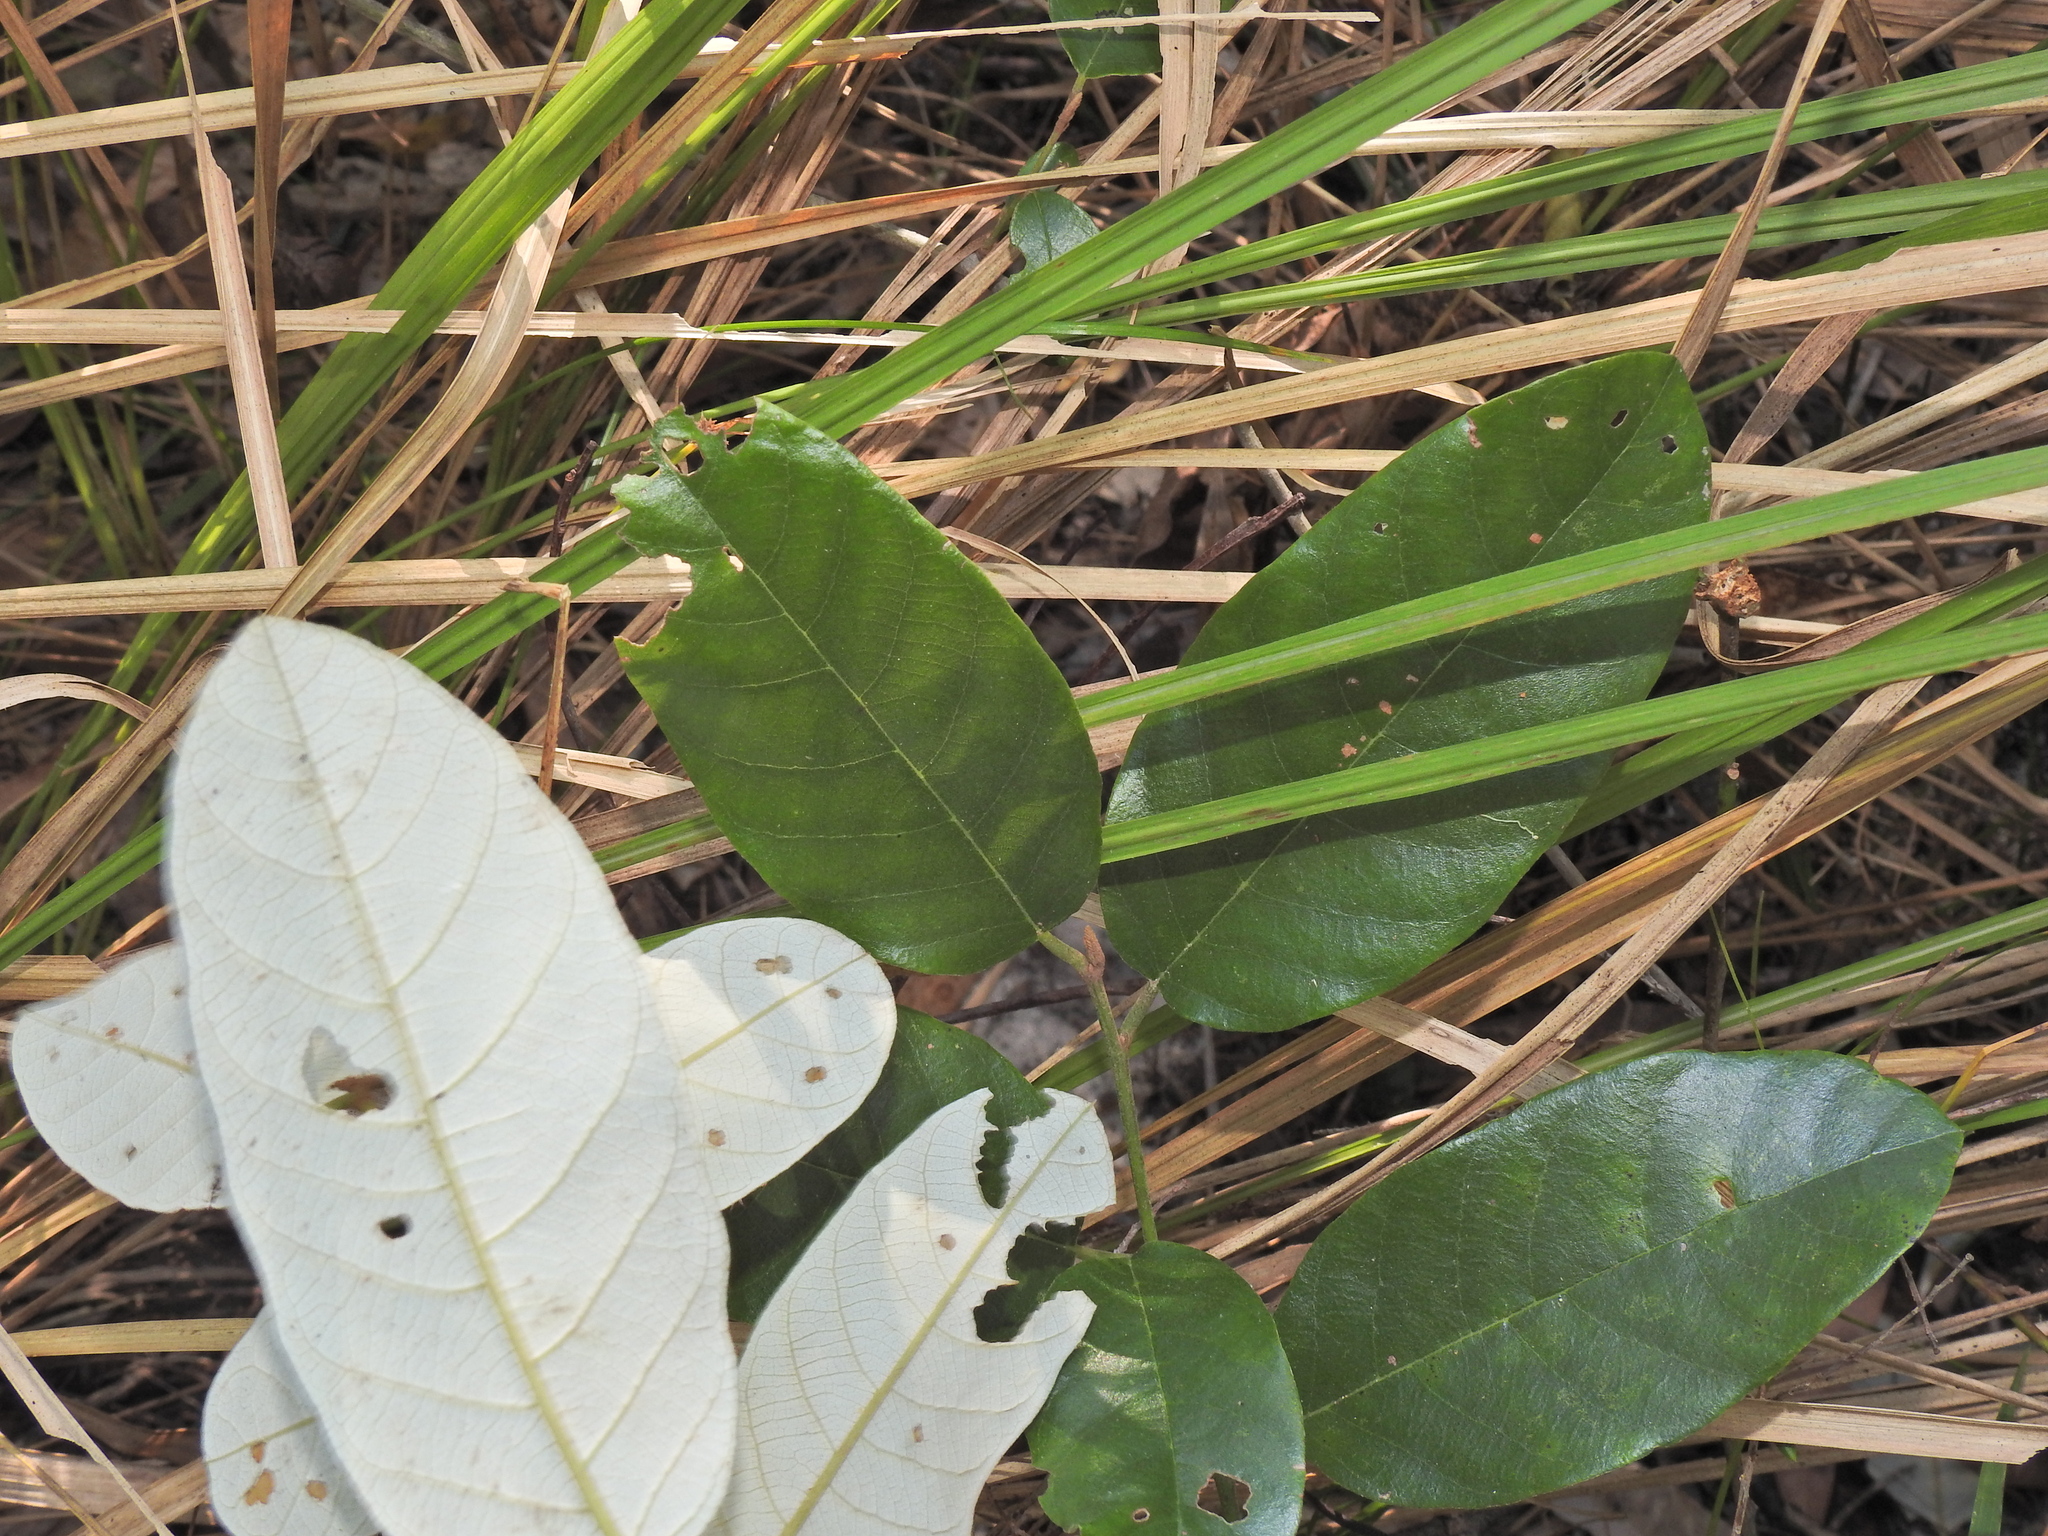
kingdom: Plantae
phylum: Tracheophyta
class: Magnoliopsida
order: Rosales
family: Rhamnaceae
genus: Alphitonia
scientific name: Alphitonia excelsa
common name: Red ash
